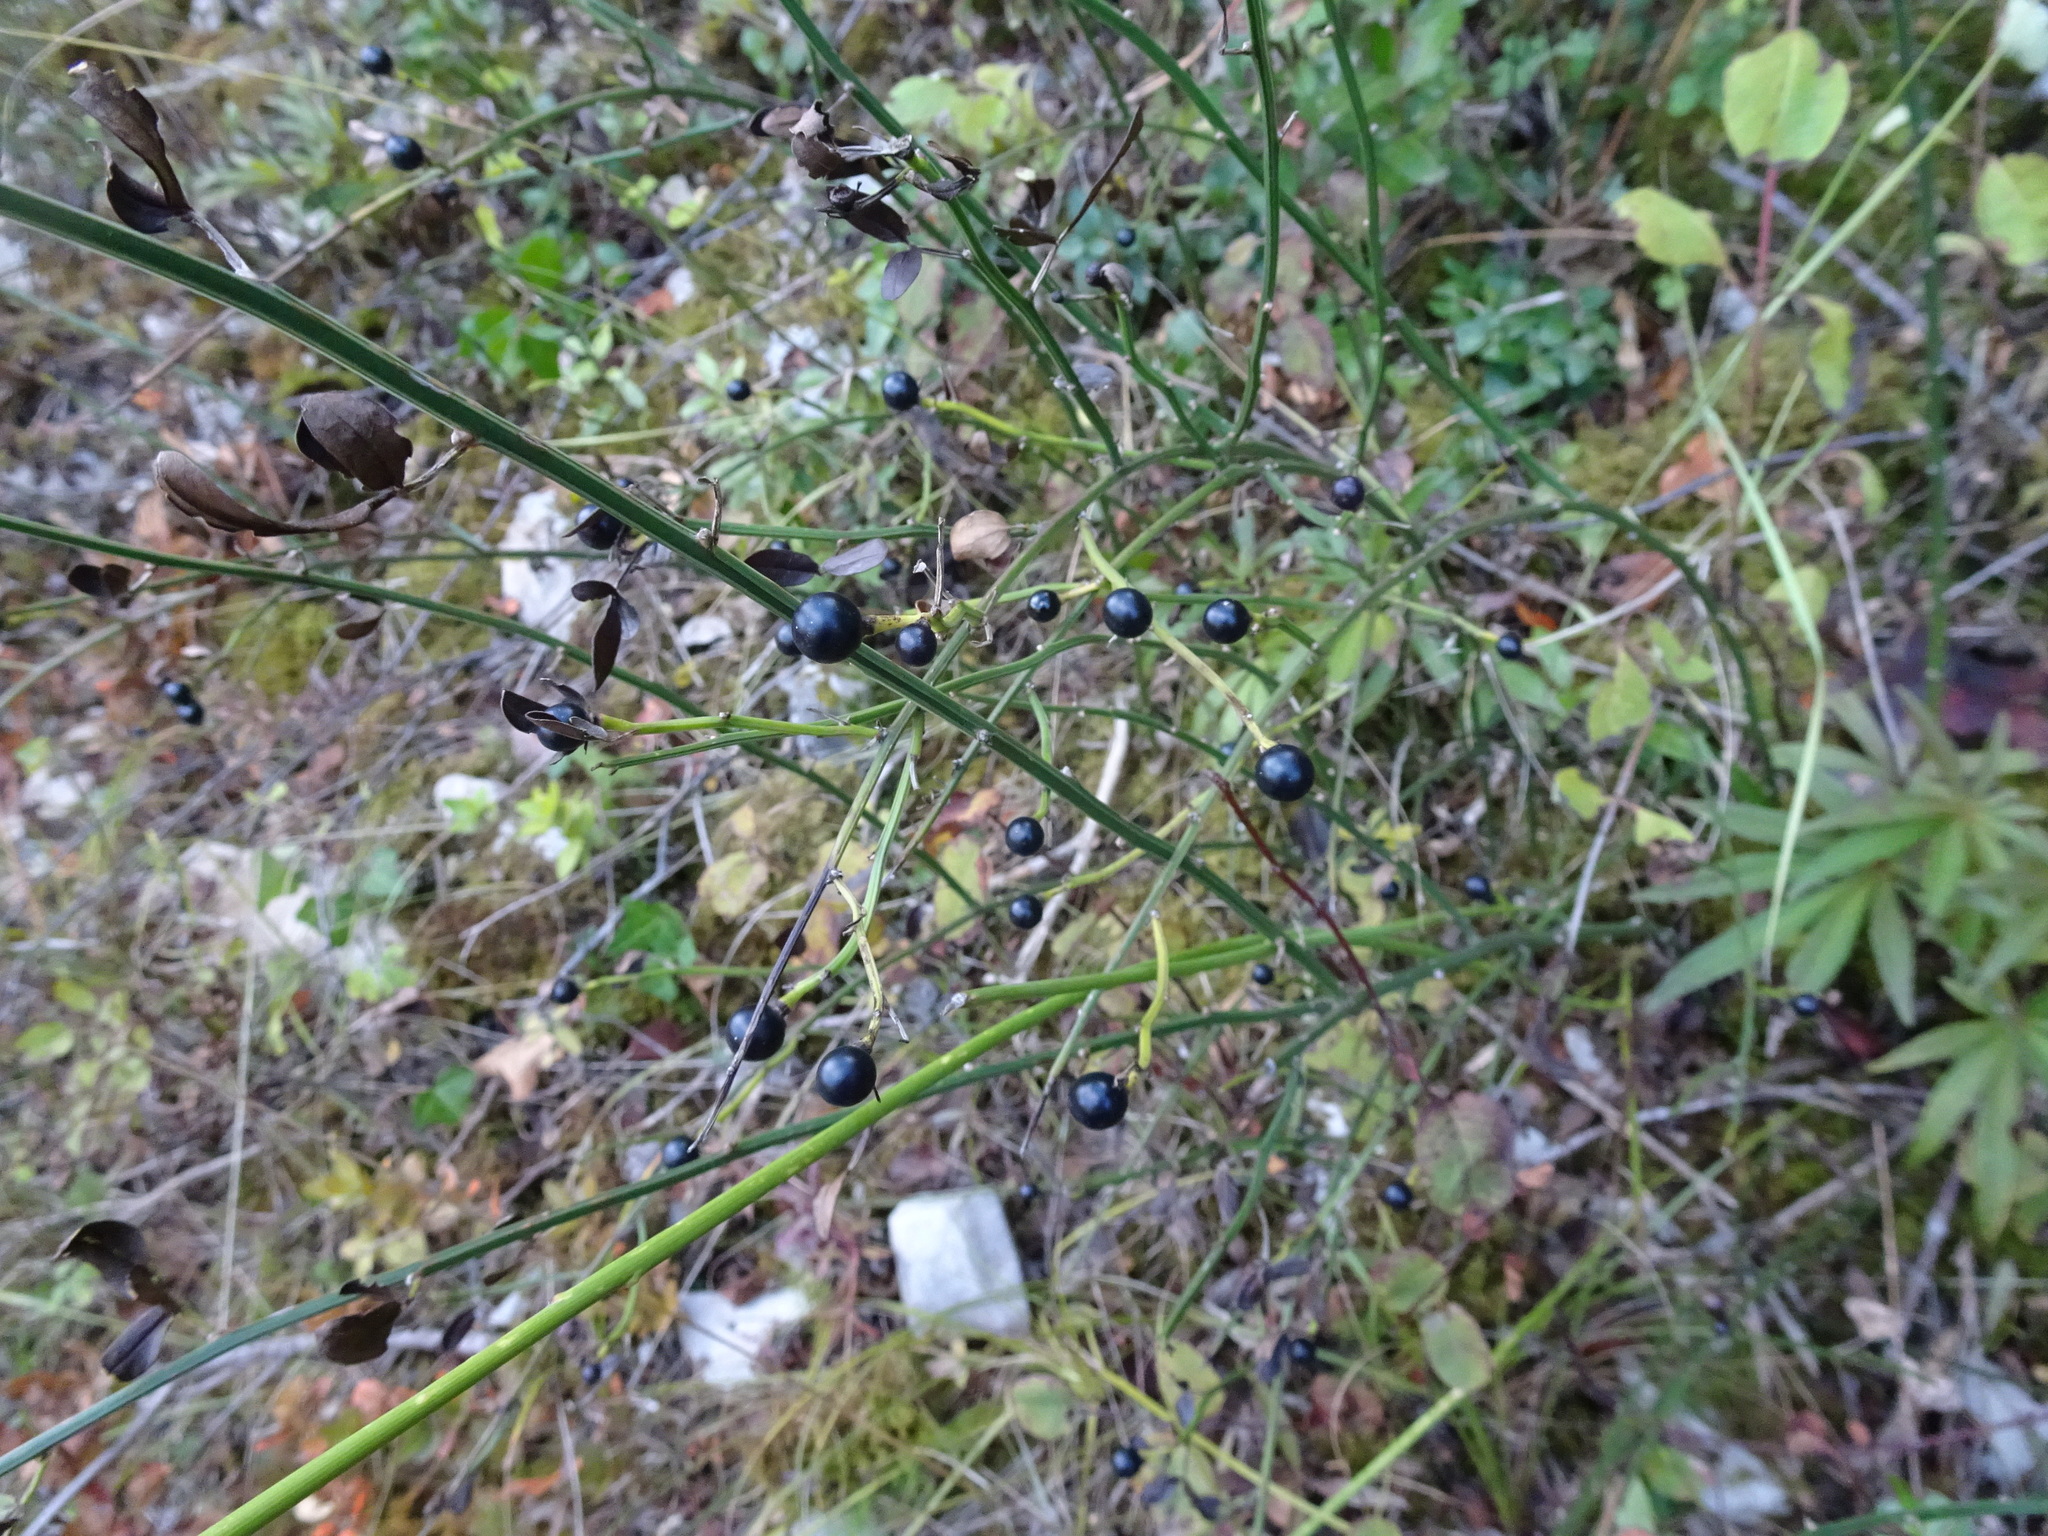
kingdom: Plantae
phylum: Tracheophyta
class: Magnoliopsida
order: Lamiales
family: Oleaceae
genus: Chrysojasminum
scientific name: Chrysojasminum fruticans
